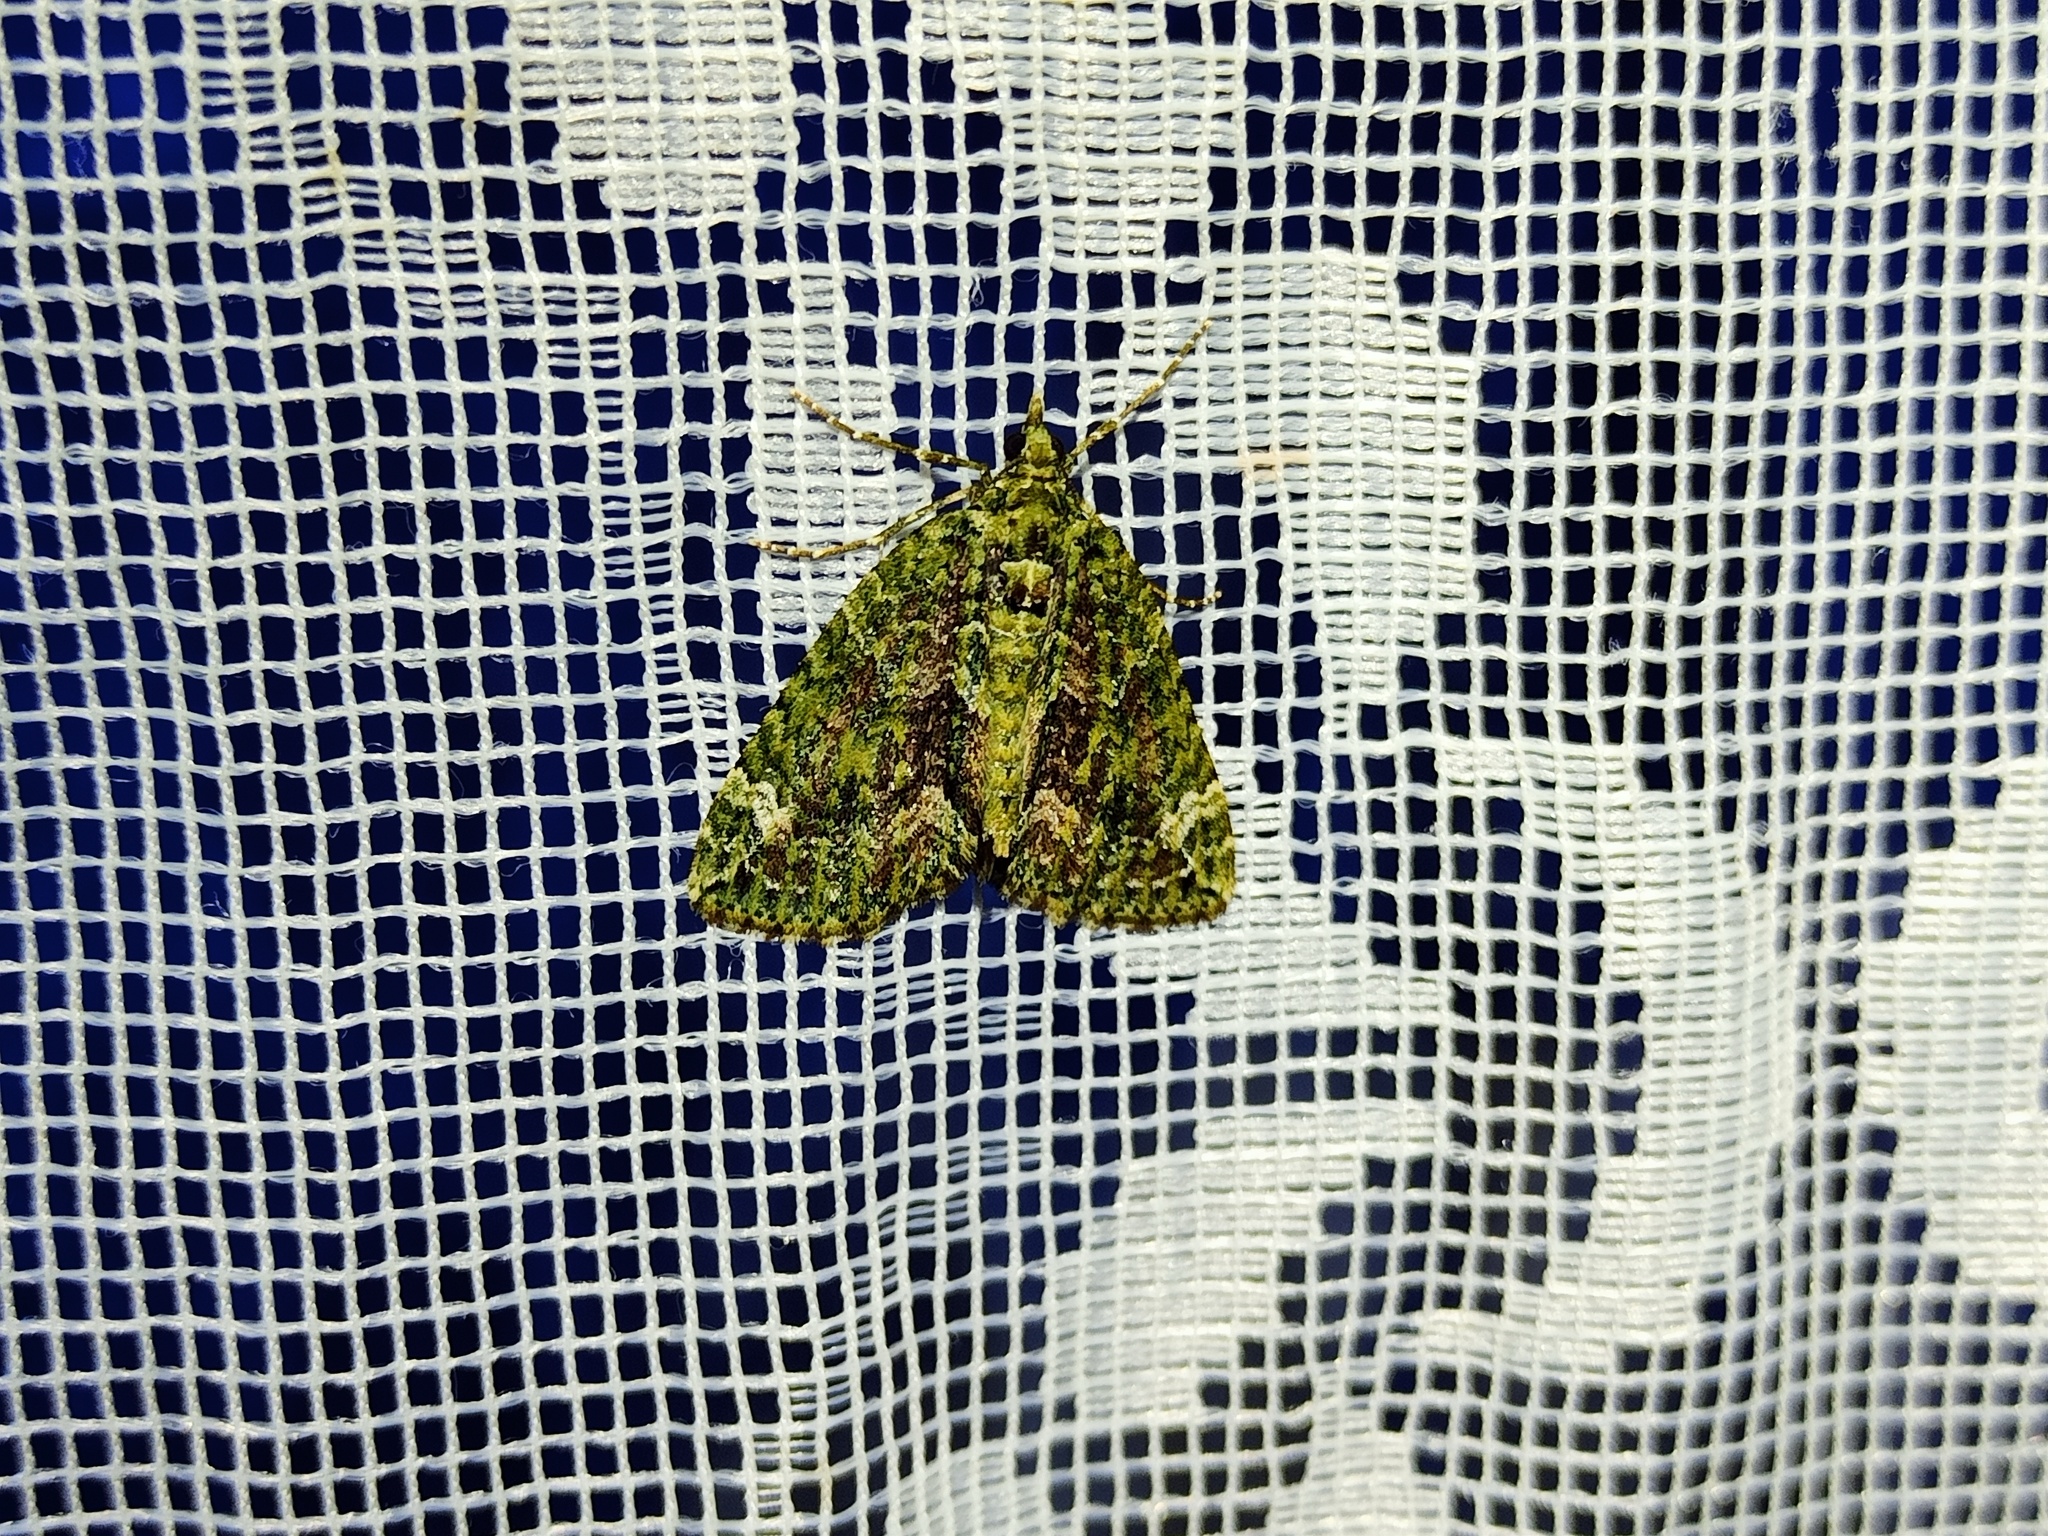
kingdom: Animalia
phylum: Arthropoda
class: Insecta
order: Lepidoptera
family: Geometridae
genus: Chloroclysta
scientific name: Chloroclysta siterata
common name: Red-green carpet
